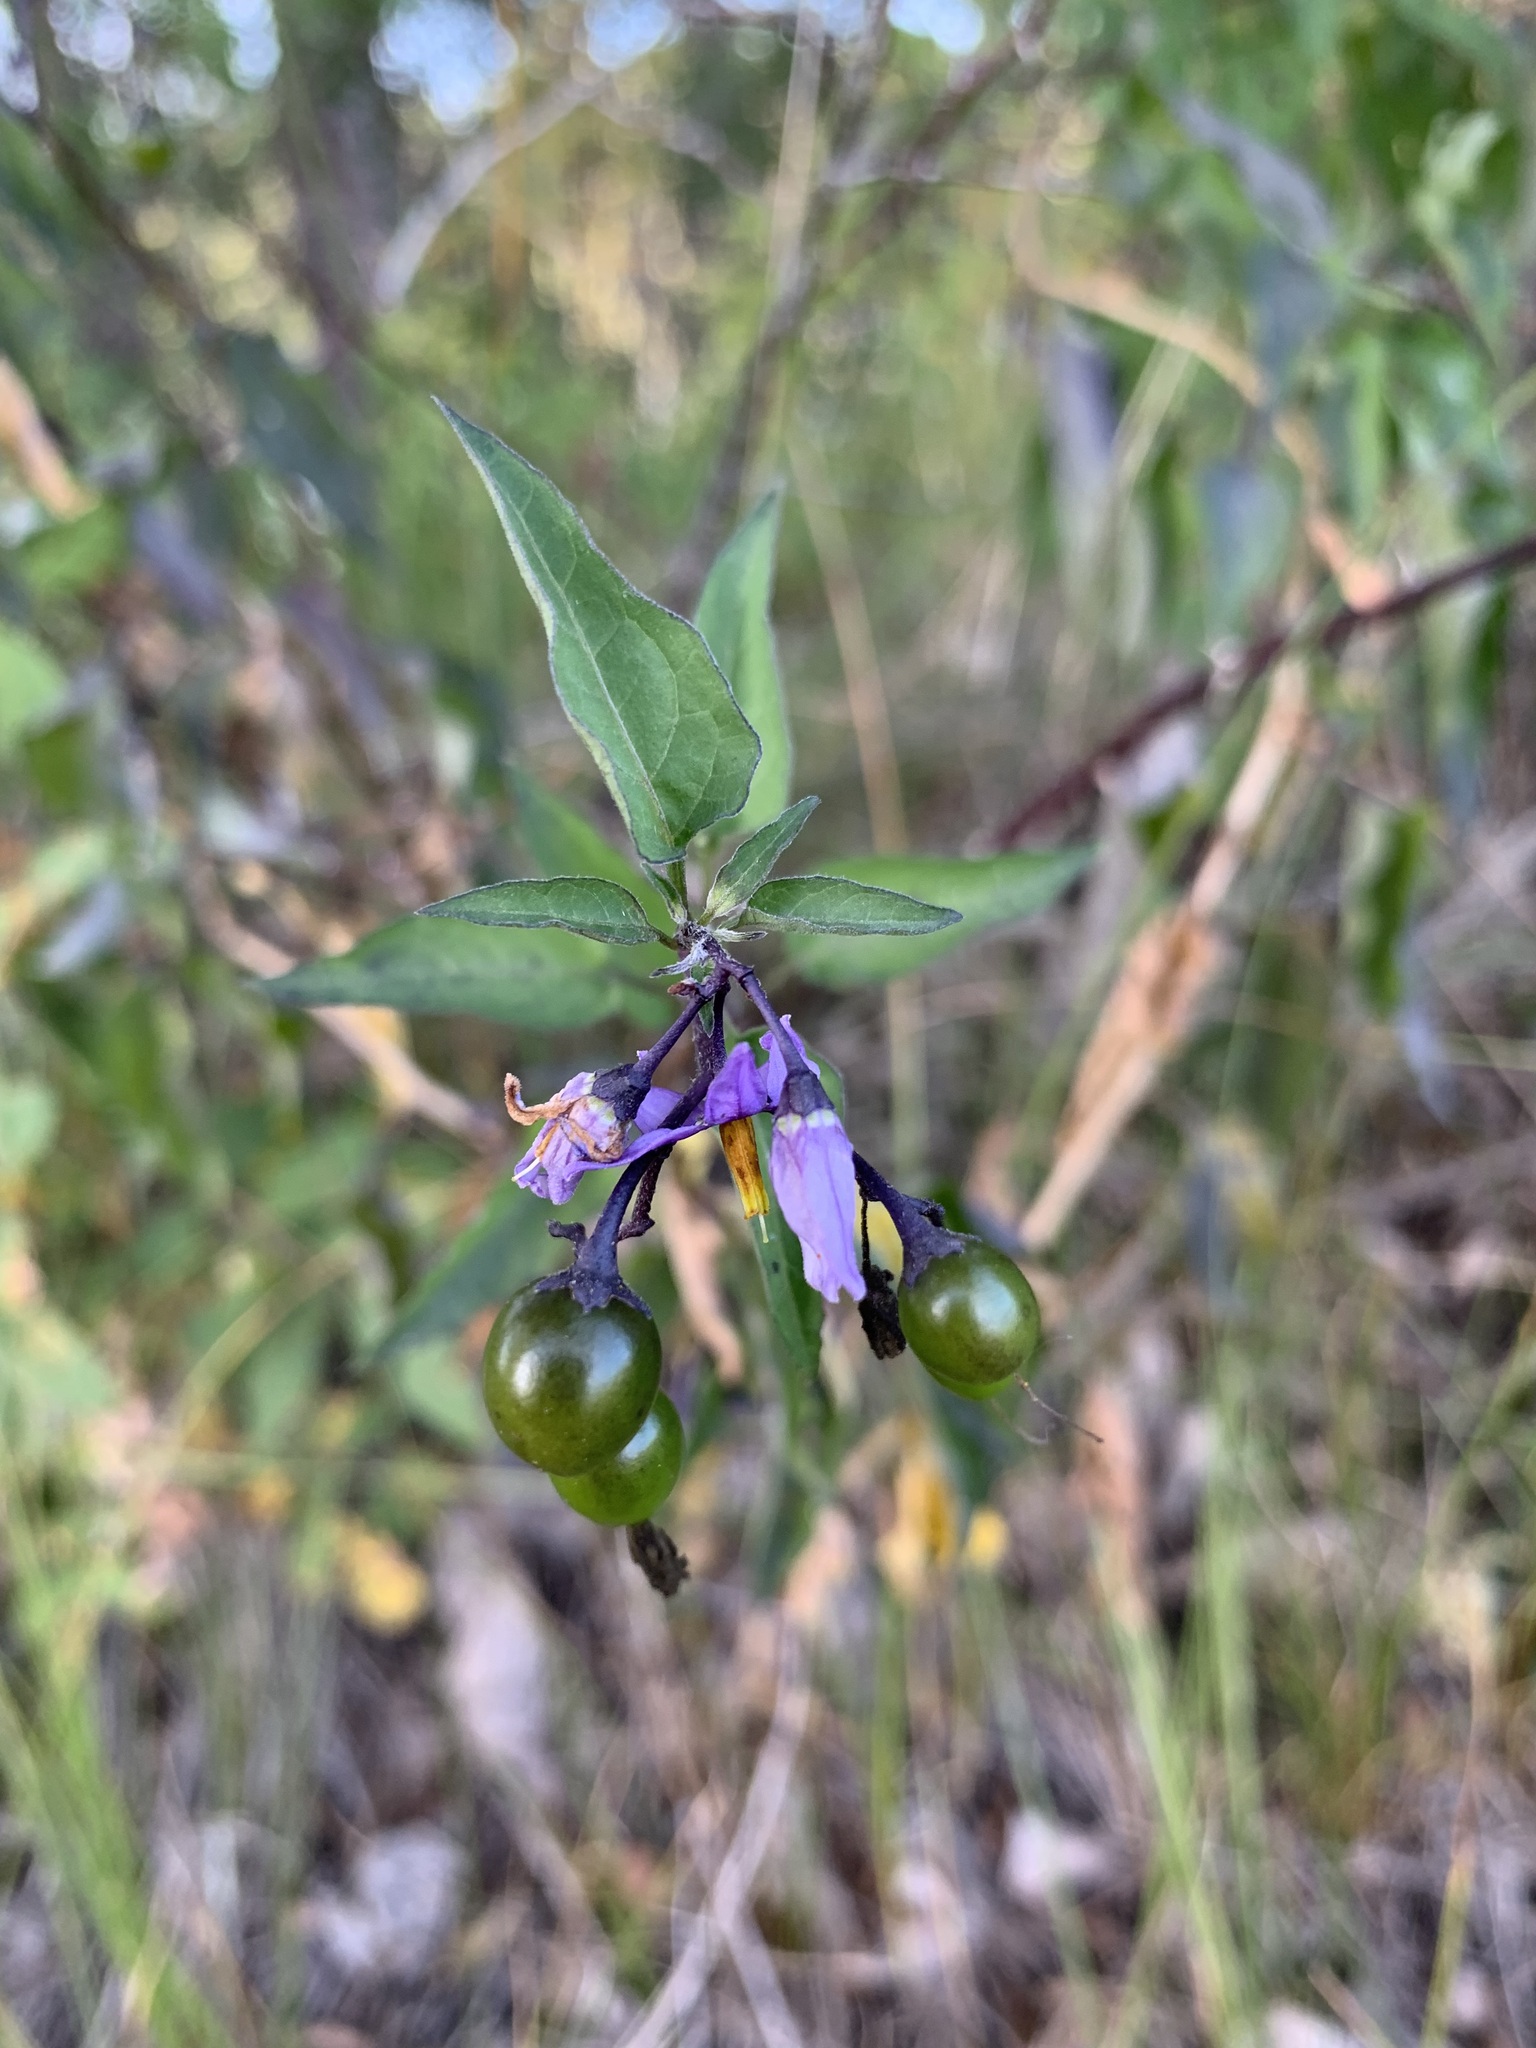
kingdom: Plantae
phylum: Tracheophyta
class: Magnoliopsida
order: Solanales
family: Solanaceae
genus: Solanum
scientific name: Solanum dulcamara
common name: Climbing nightshade
